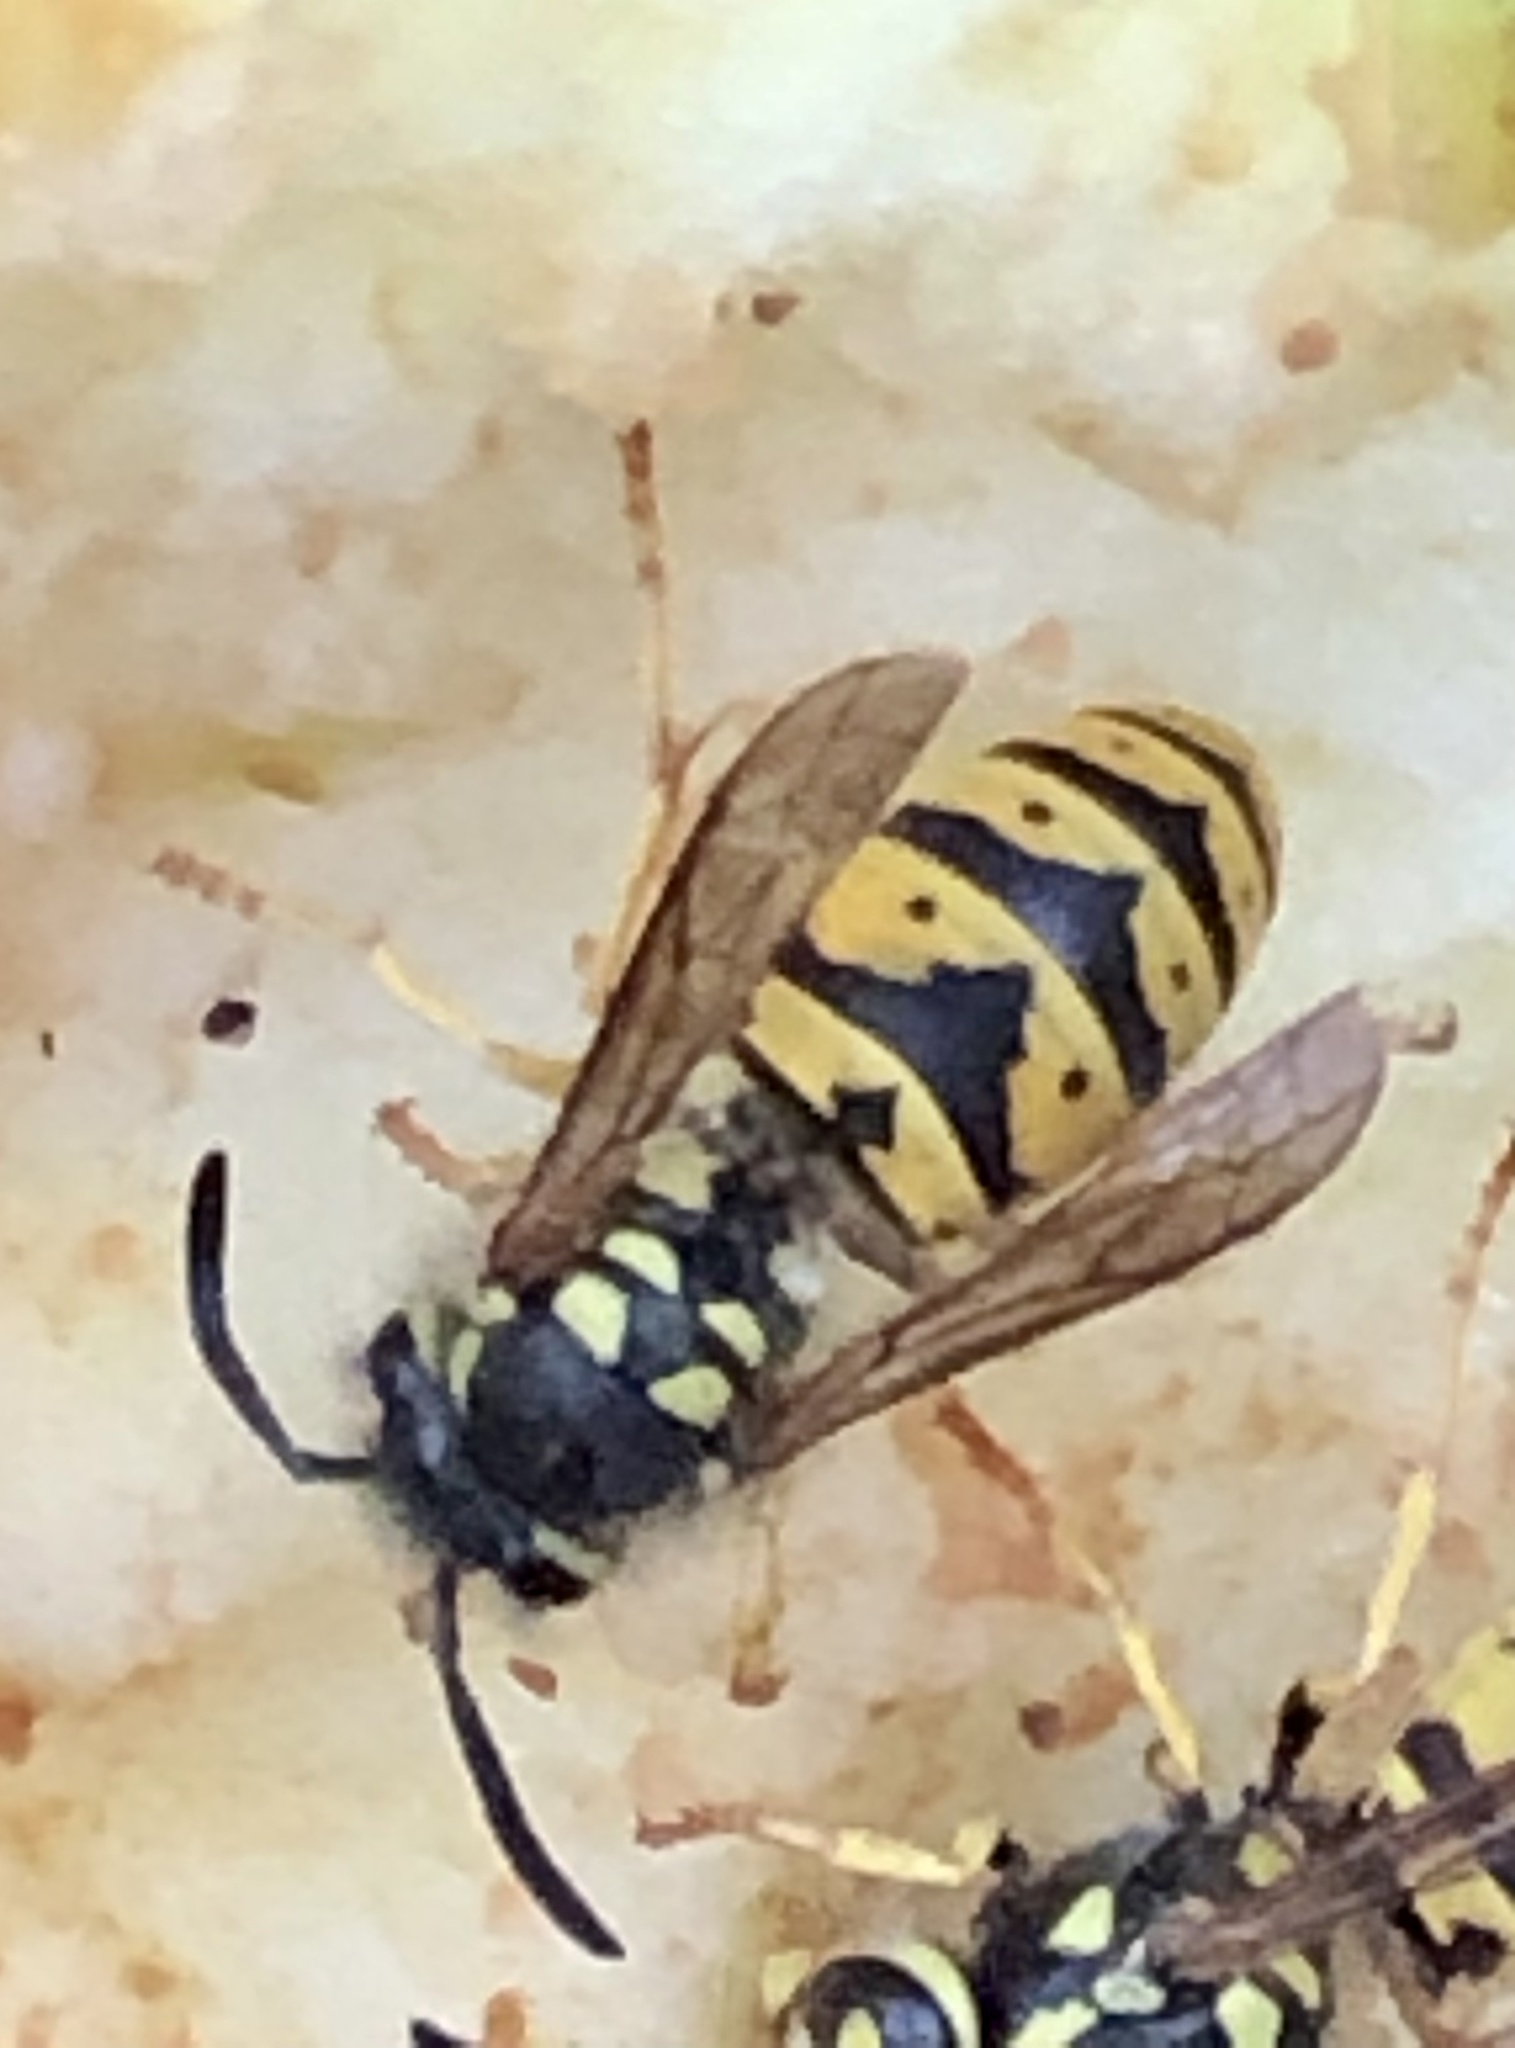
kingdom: Animalia
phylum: Arthropoda
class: Insecta
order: Hymenoptera
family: Vespidae
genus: Vespula
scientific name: Vespula germanica
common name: German wasp
